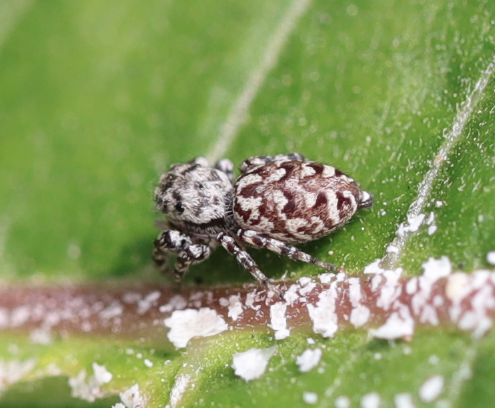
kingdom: Animalia
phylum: Arthropoda
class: Arachnida
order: Araneae
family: Salticidae
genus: Pelegrina
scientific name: Pelegrina galathea
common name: Jumping spiders
